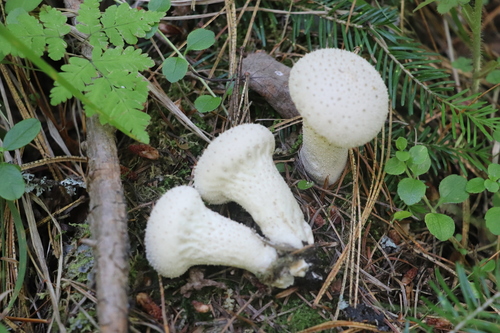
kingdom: Fungi
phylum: Basidiomycota
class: Agaricomycetes
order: Agaricales
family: Lycoperdaceae
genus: Lycoperdon
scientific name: Lycoperdon perlatum
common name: Common puffball
